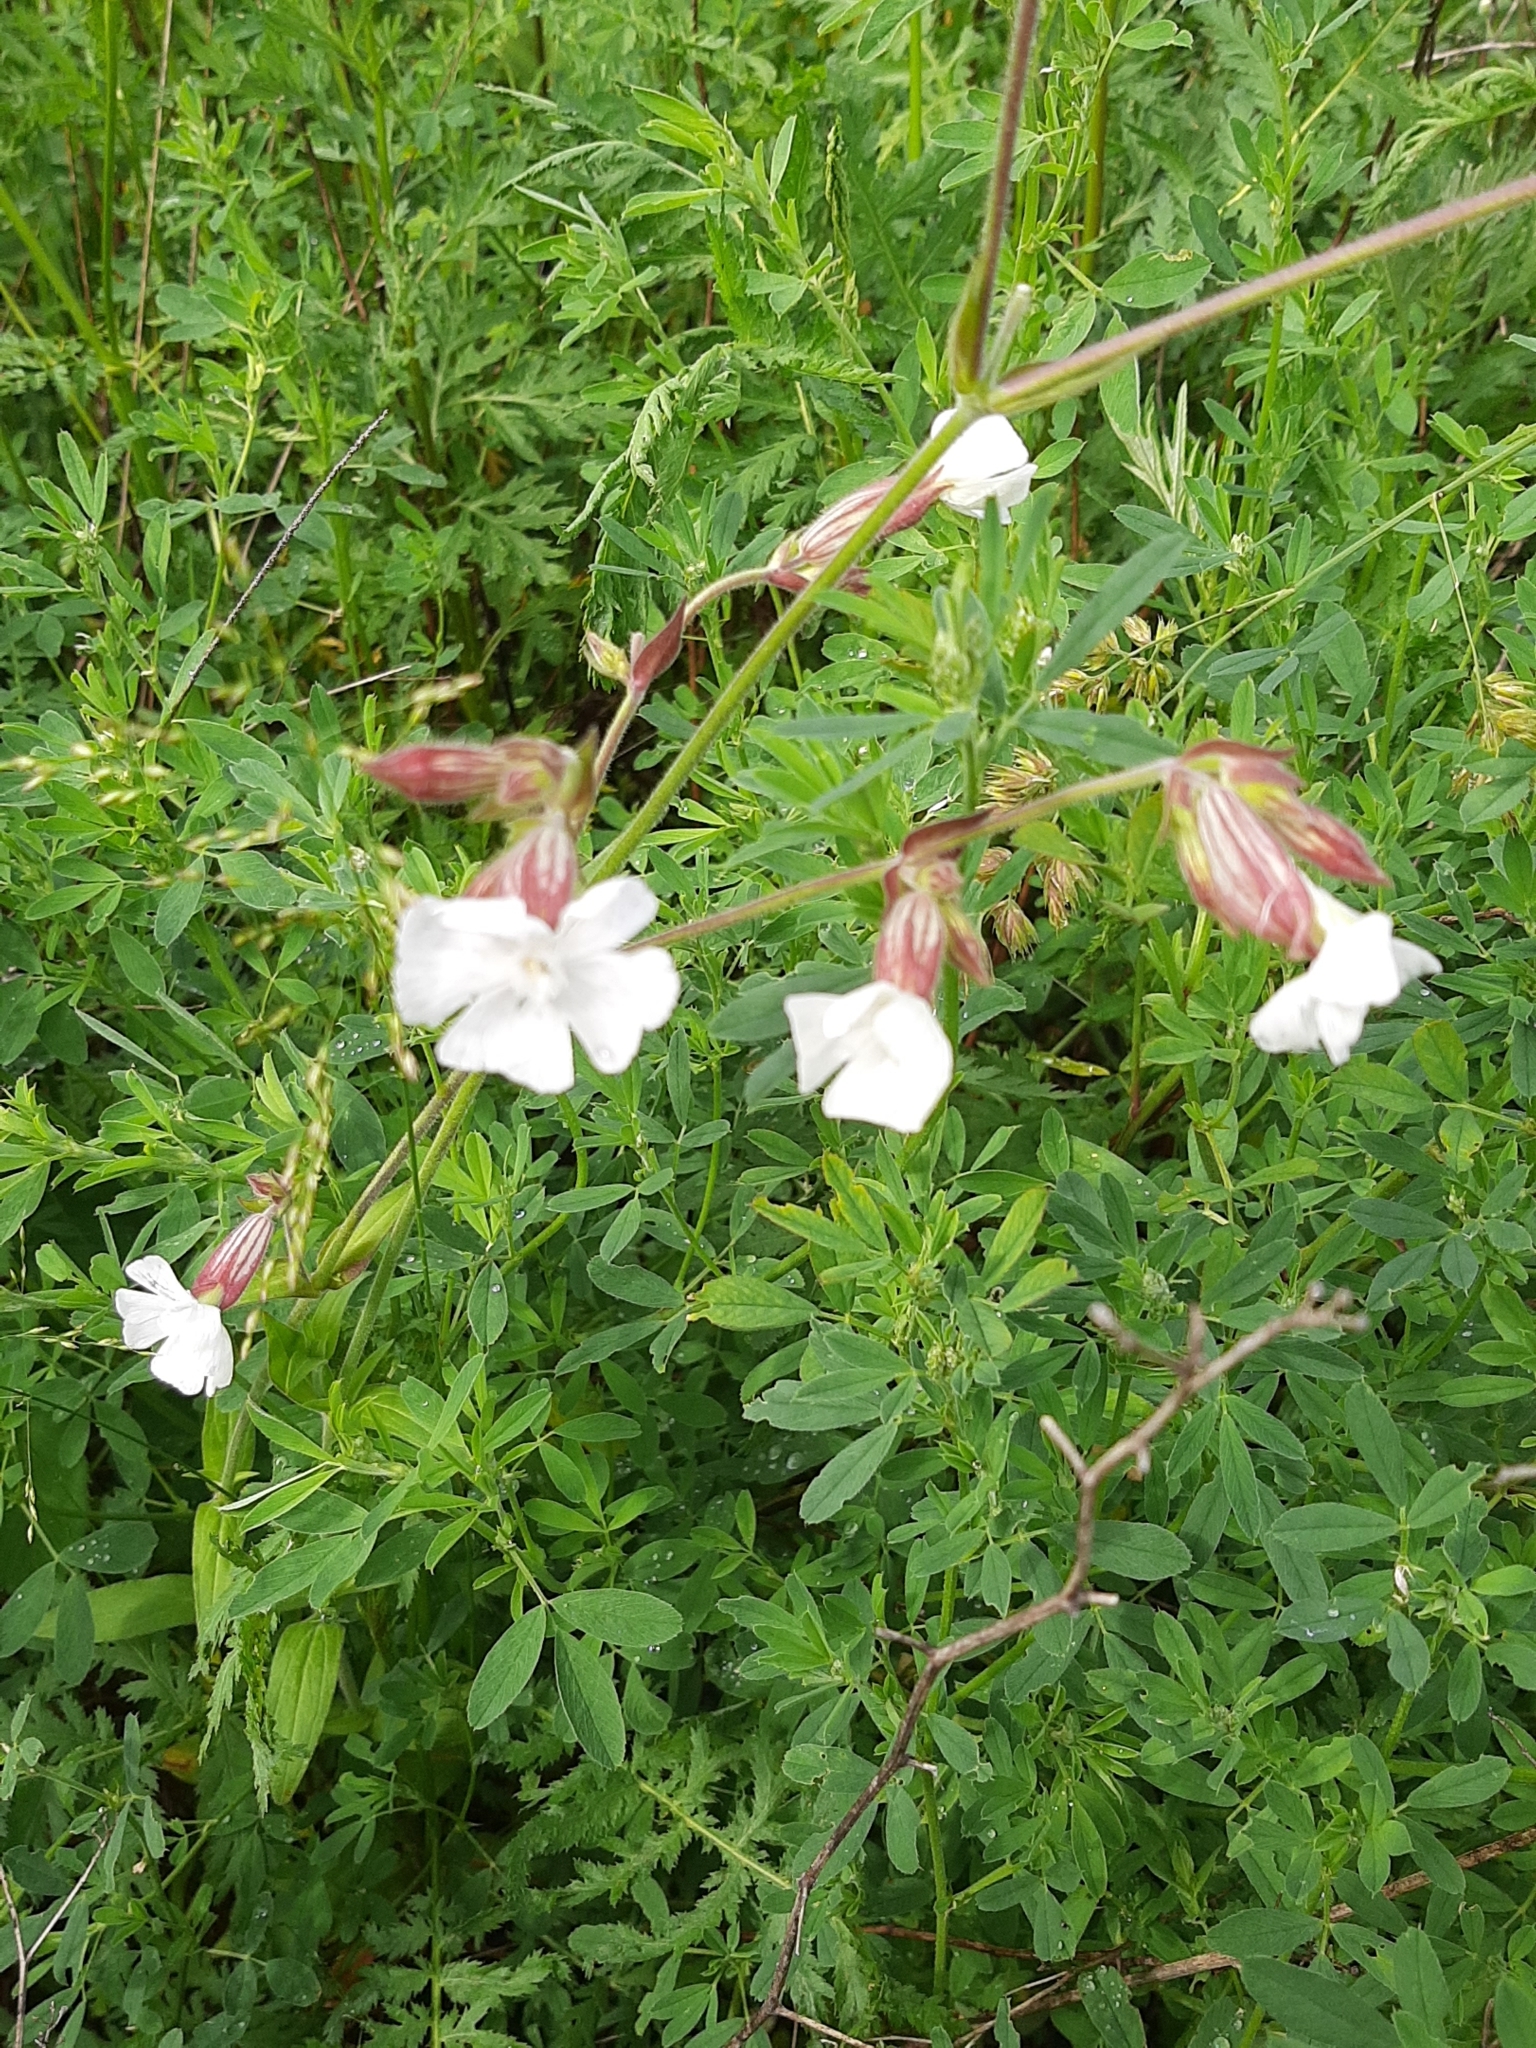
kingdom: Plantae
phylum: Tracheophyta
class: Magnoliopsida
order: Caryophyllales
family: Caryophyllaceae
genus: Silene
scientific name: Silene latifolia
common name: White campion
